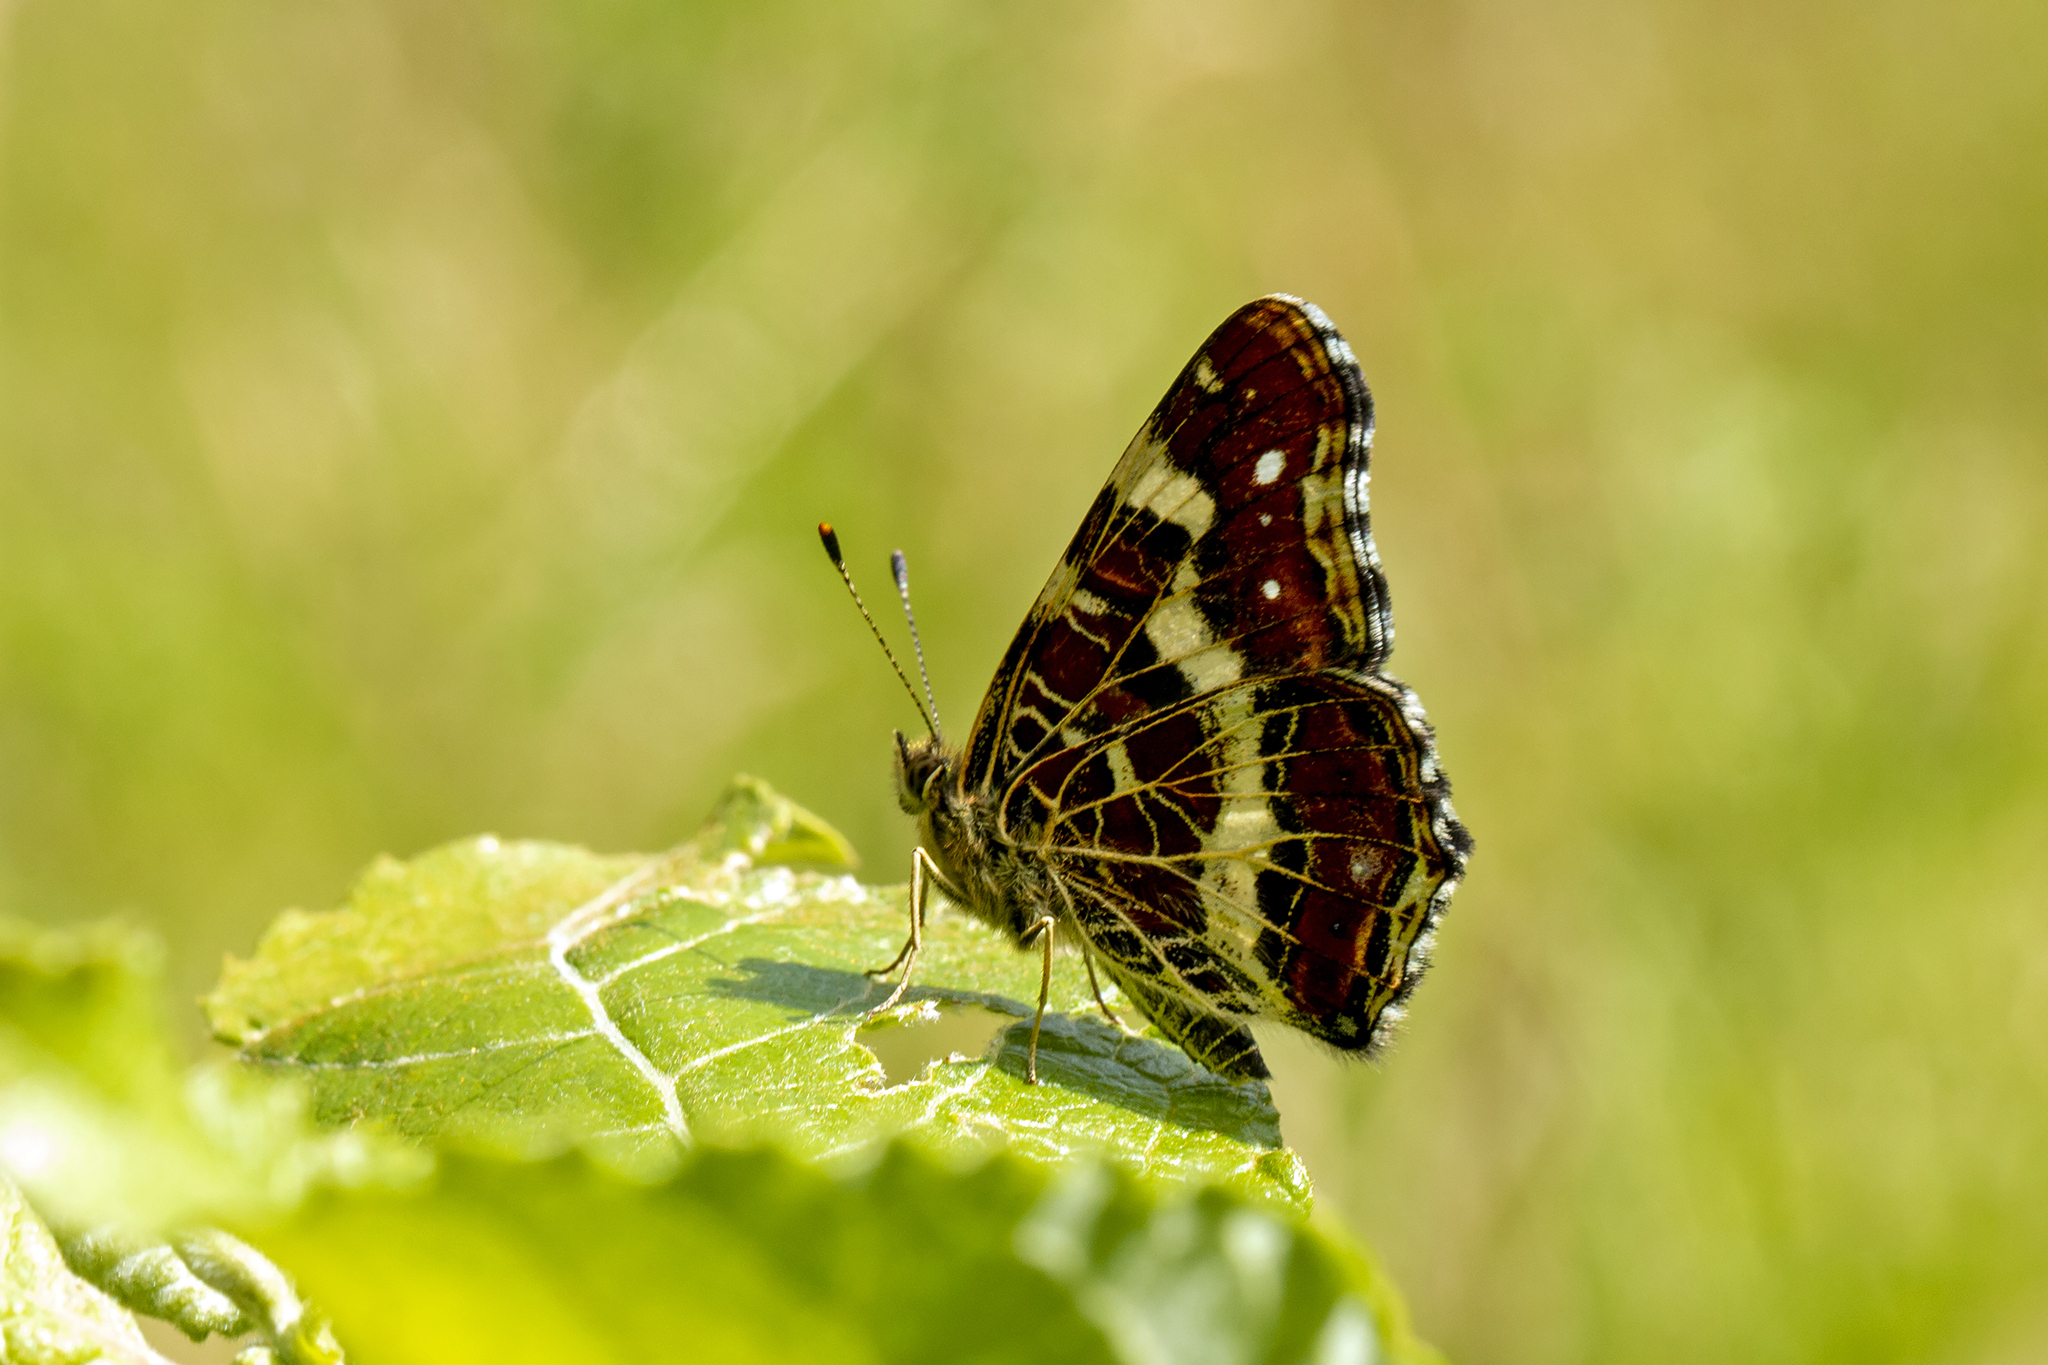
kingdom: Animalia
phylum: Arthropoda
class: Insecta
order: Lepidoptera
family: Nymphalidae
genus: Araschnia
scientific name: Araschnia levana
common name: Map butterfly
